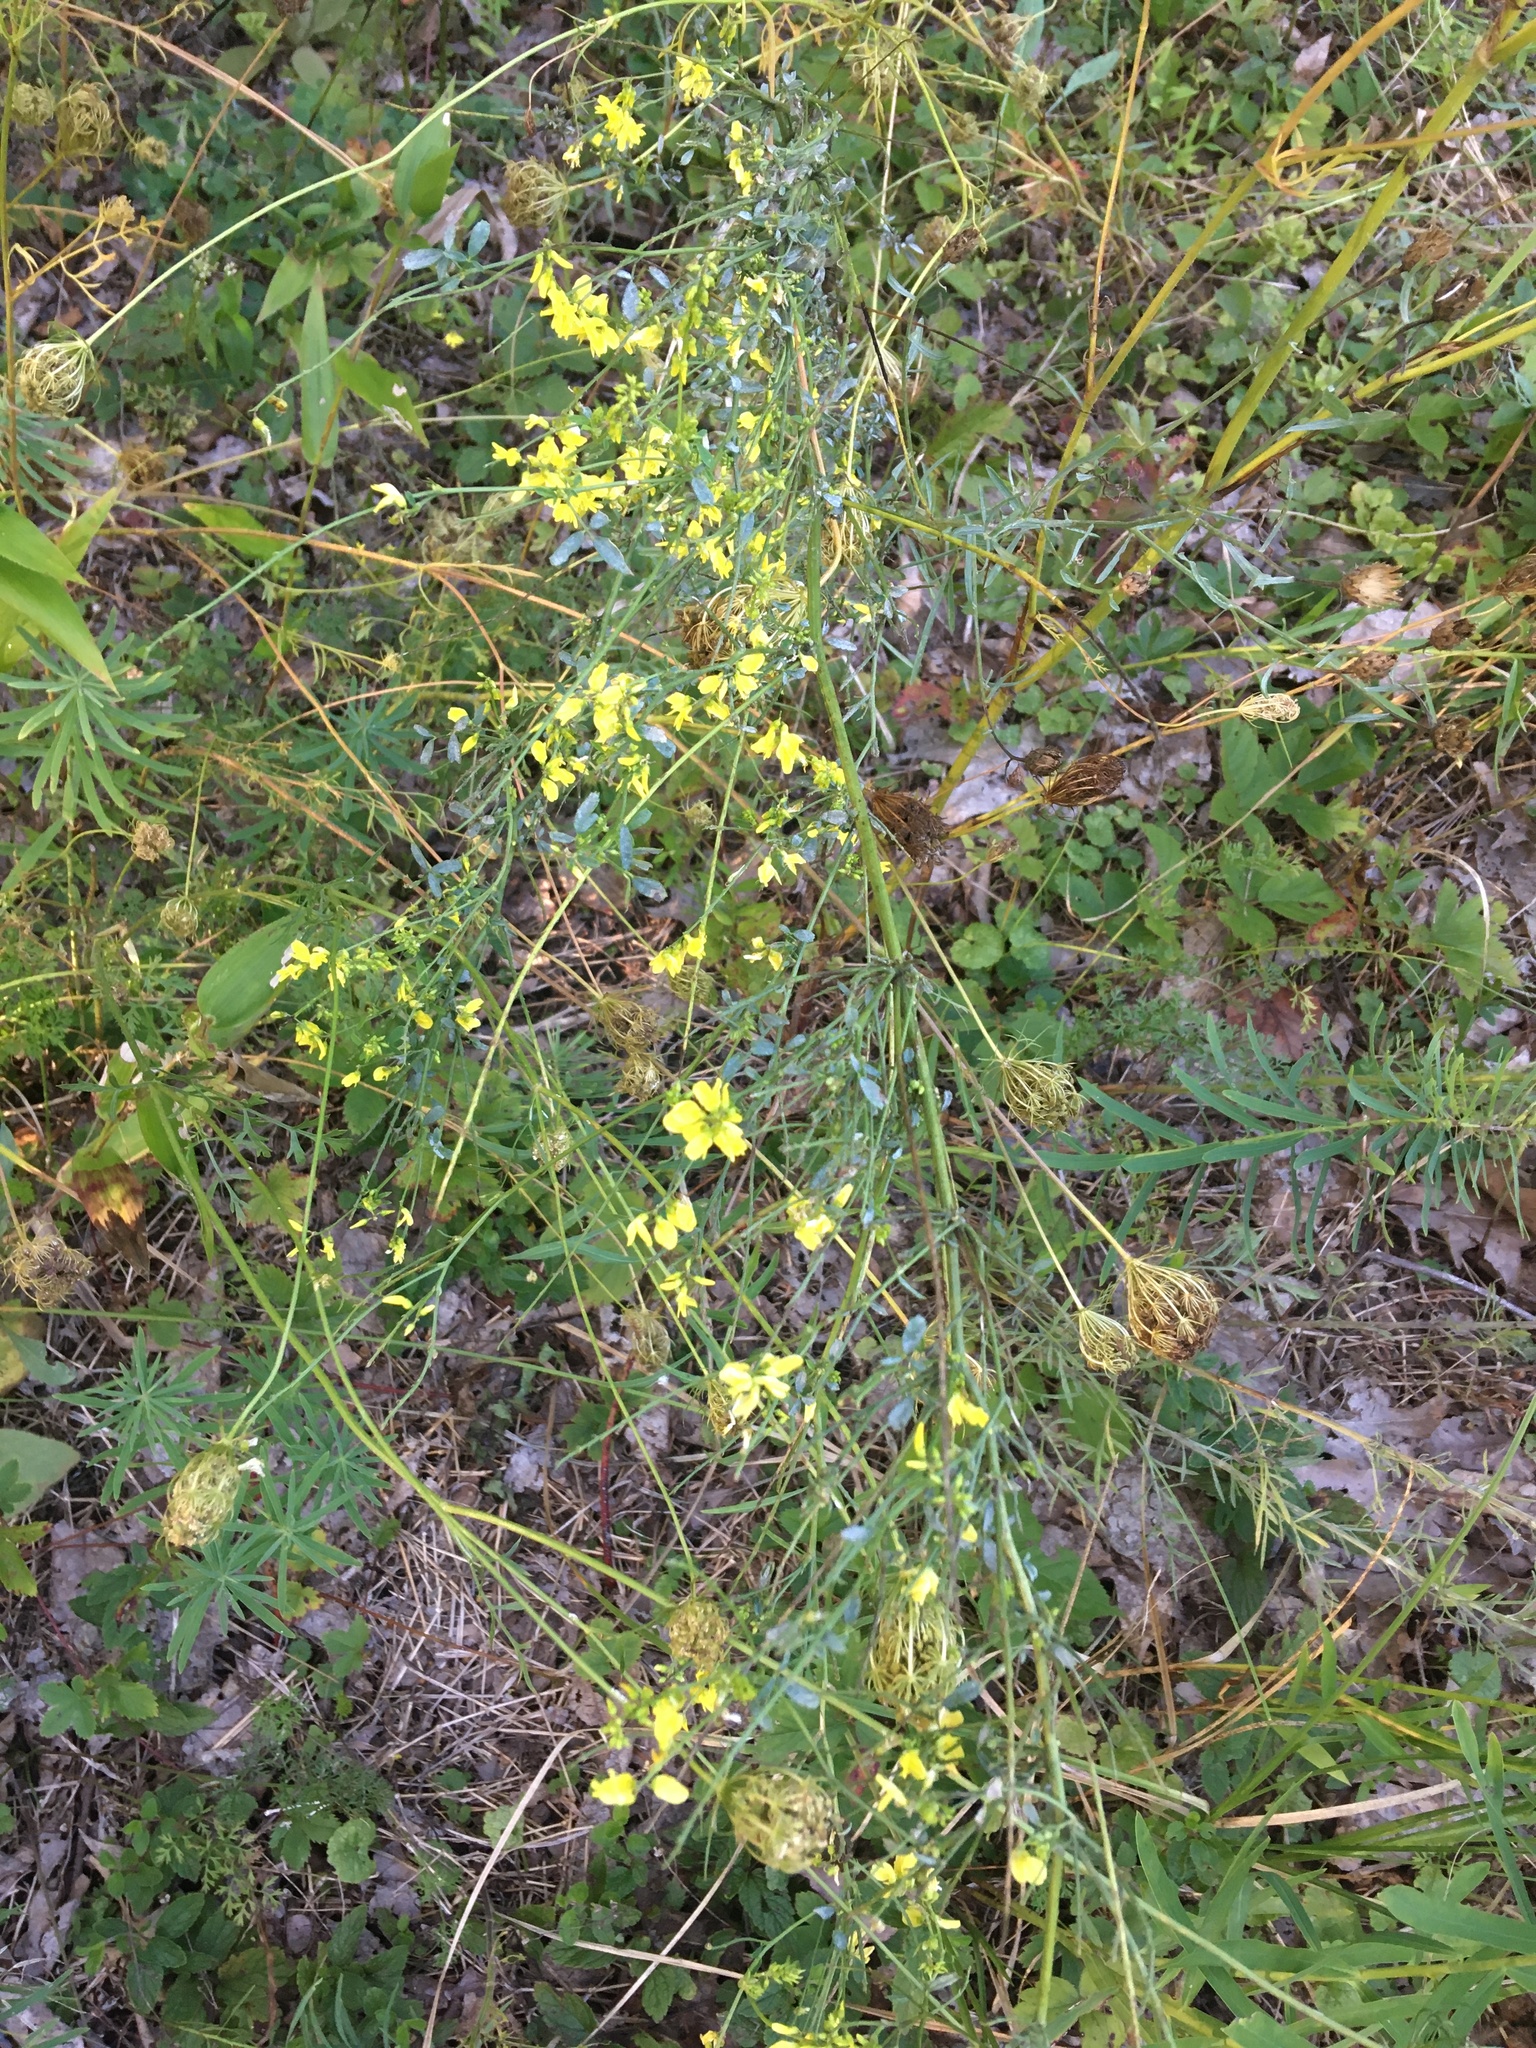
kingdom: Plantae
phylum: Tracheophyta
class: Magnoliopsida
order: Fabales
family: Fabaceae
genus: Melilotus
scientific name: Melilotus officinalis
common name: Sweetclover
